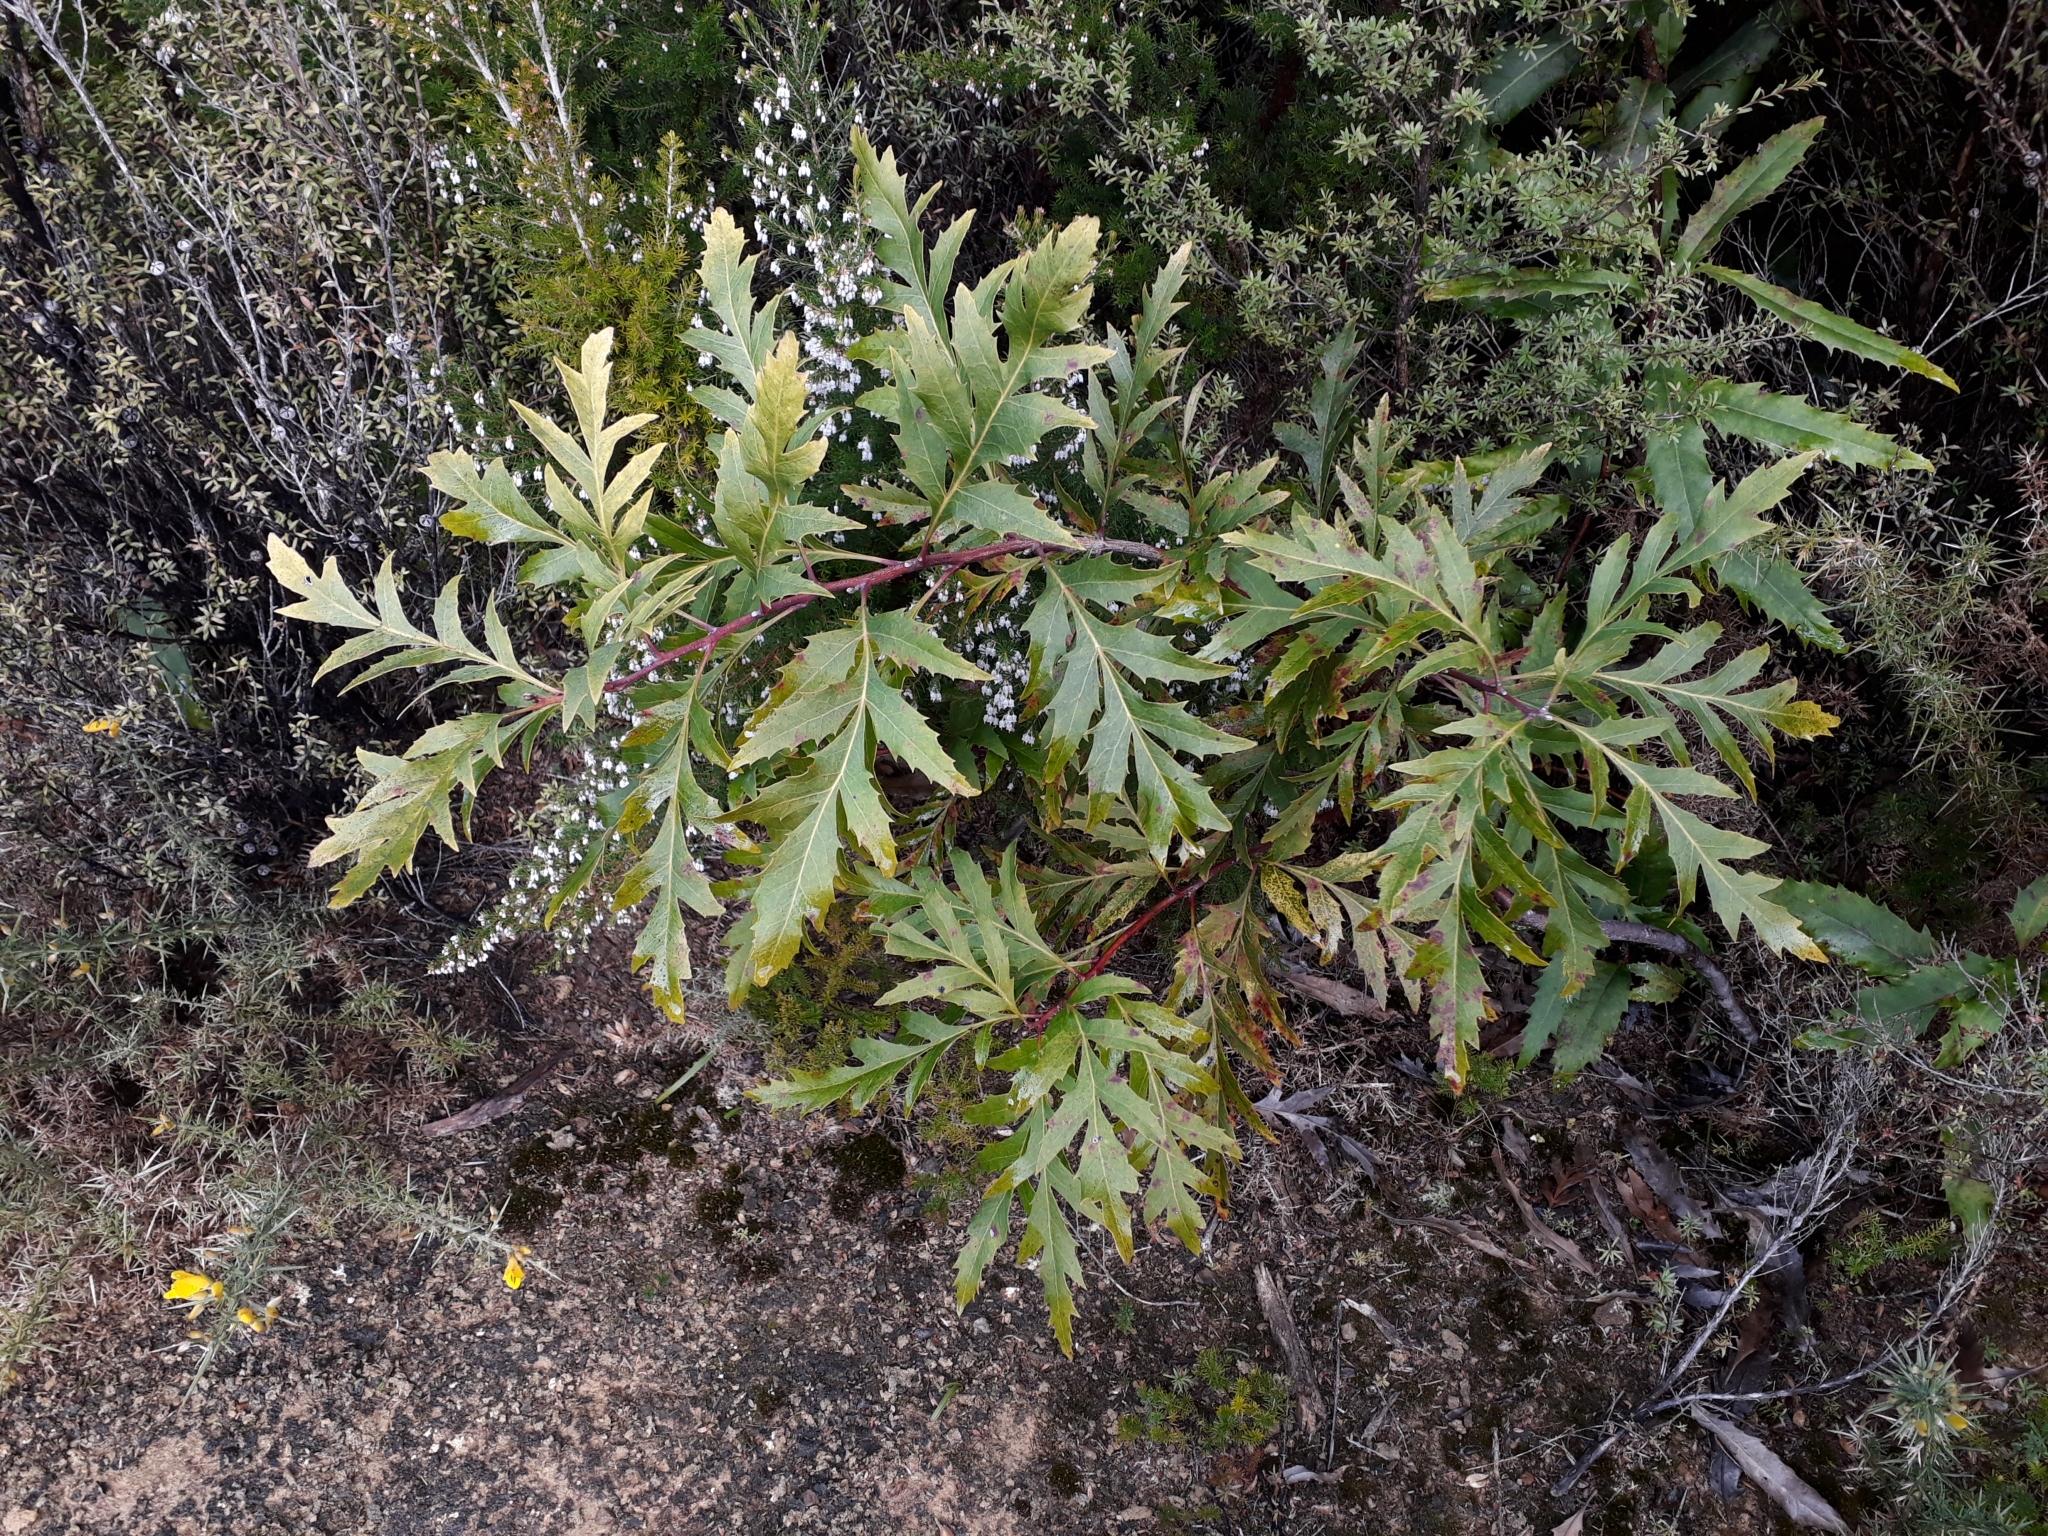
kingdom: Plantae
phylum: Tracheophyta
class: Magnoliopsida
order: Proteales
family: Proteaceae
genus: Lomatia
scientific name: Lomatia fraseri
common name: Forest lomatia
